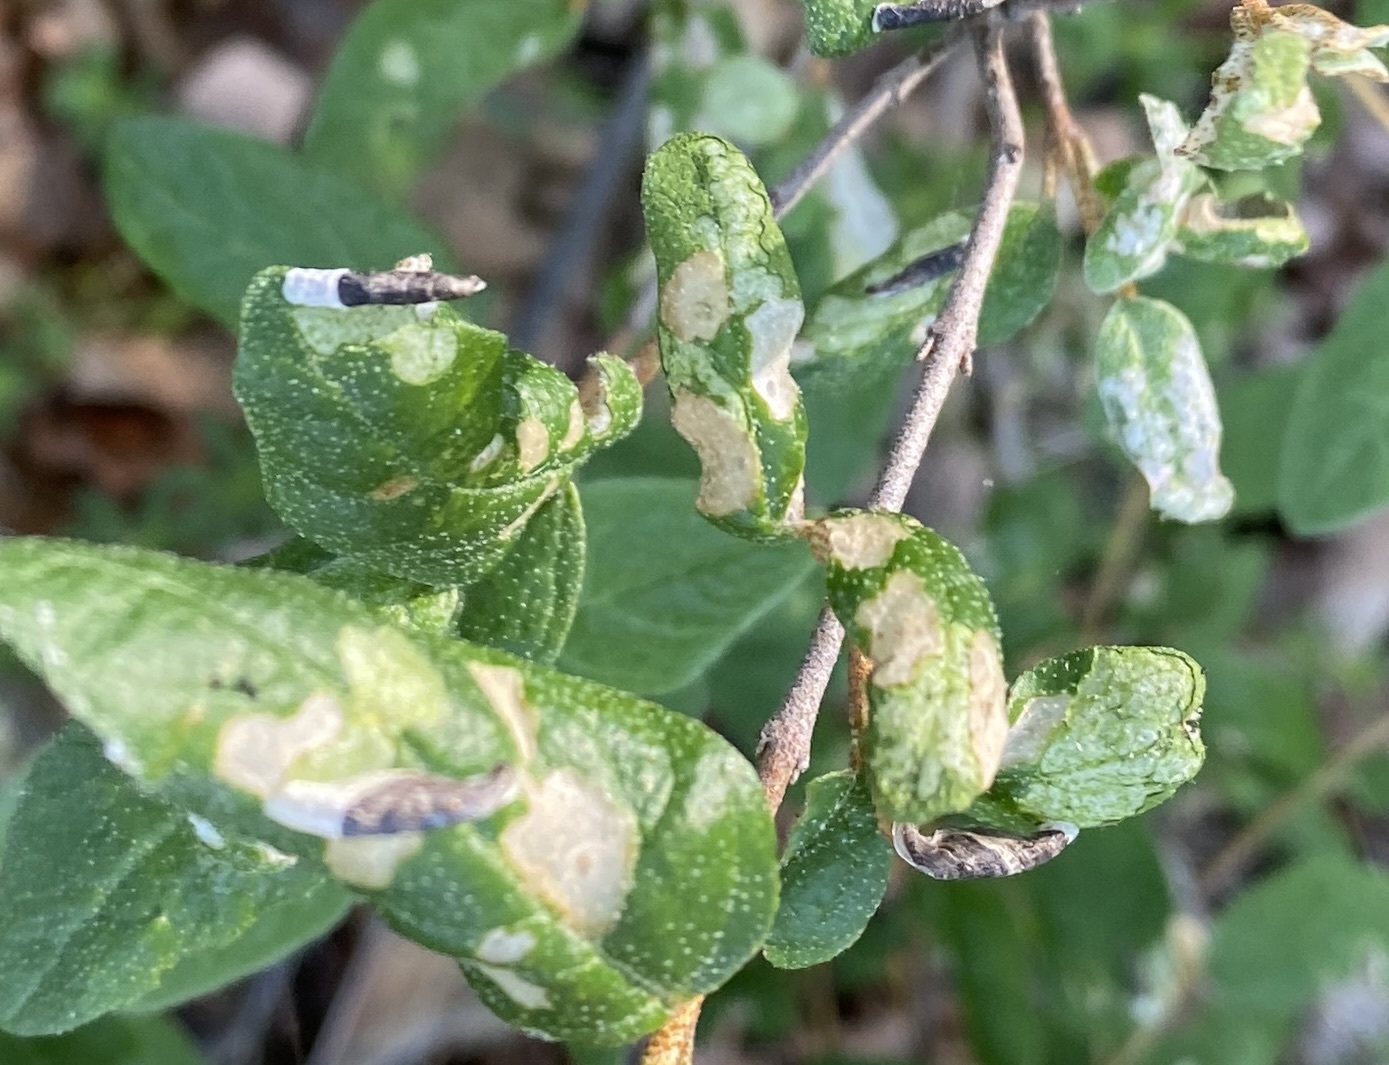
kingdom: Animalia
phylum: Arthropoda
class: Insecta
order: Lepidoptera
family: Coleophoridae
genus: Coleophora
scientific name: Coleophora elaeagnisella
